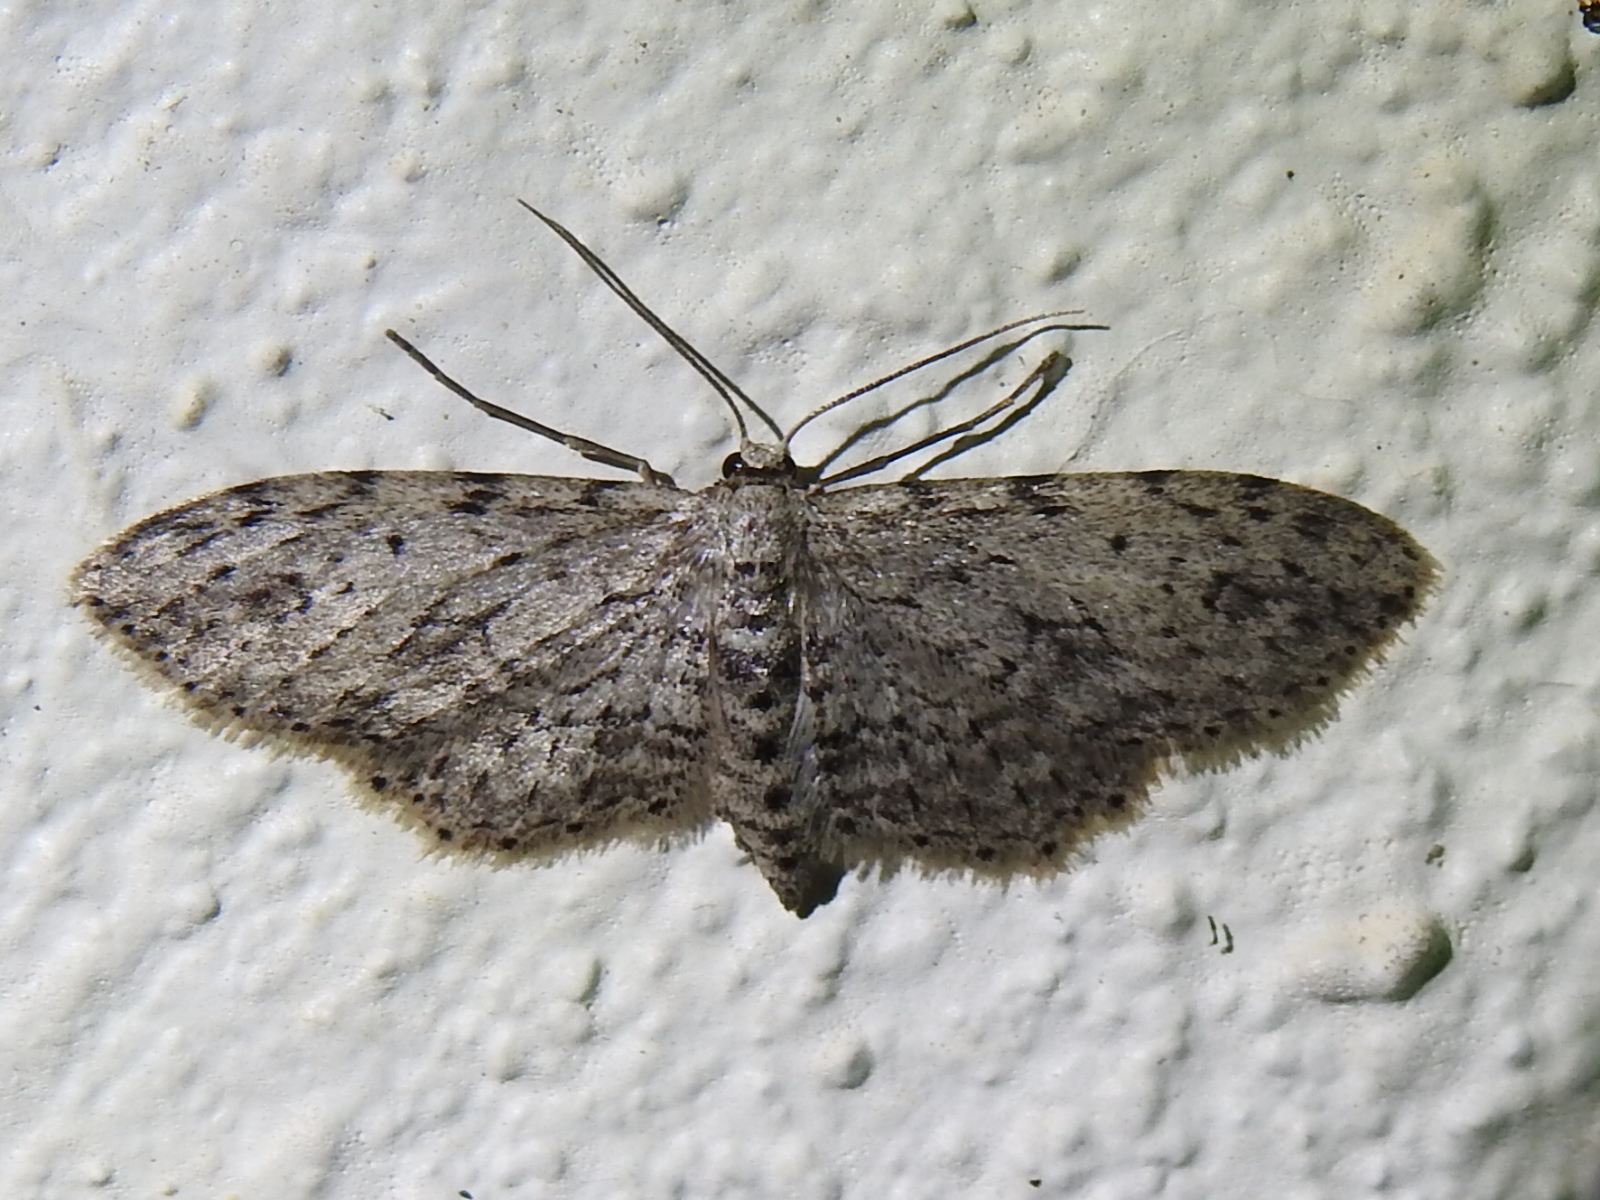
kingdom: Animalia
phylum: Arthropoda
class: Insecta
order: Lepidoptera
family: Geometridae
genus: Pimaphera
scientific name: Pimaphera sparsaria
